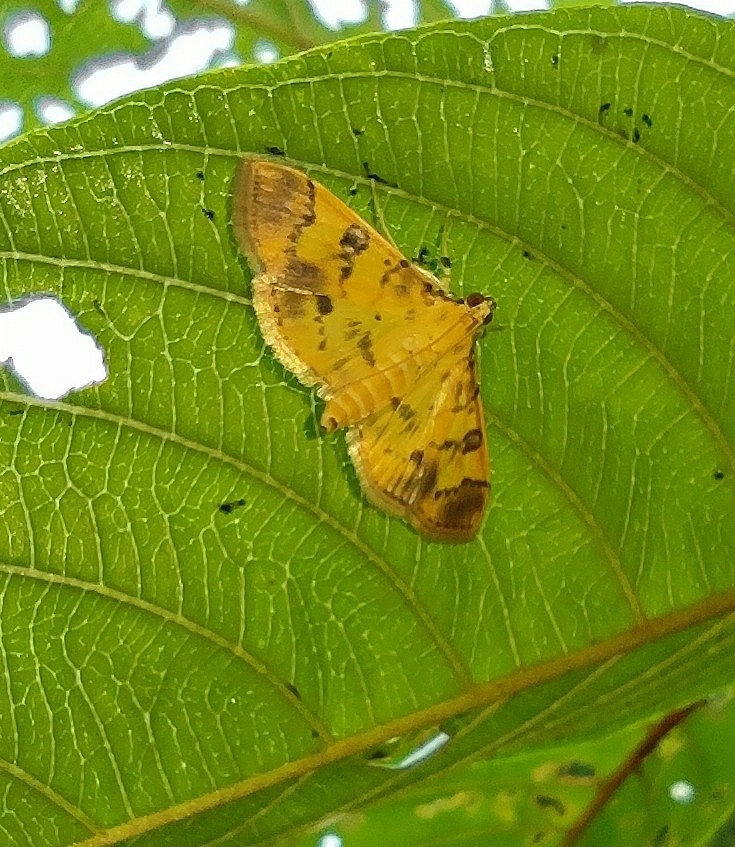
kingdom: Animalia
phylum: Arthropoda
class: Insecta
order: Lepidoptera
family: Crambidae
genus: Patania
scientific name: Patania iopasalis
